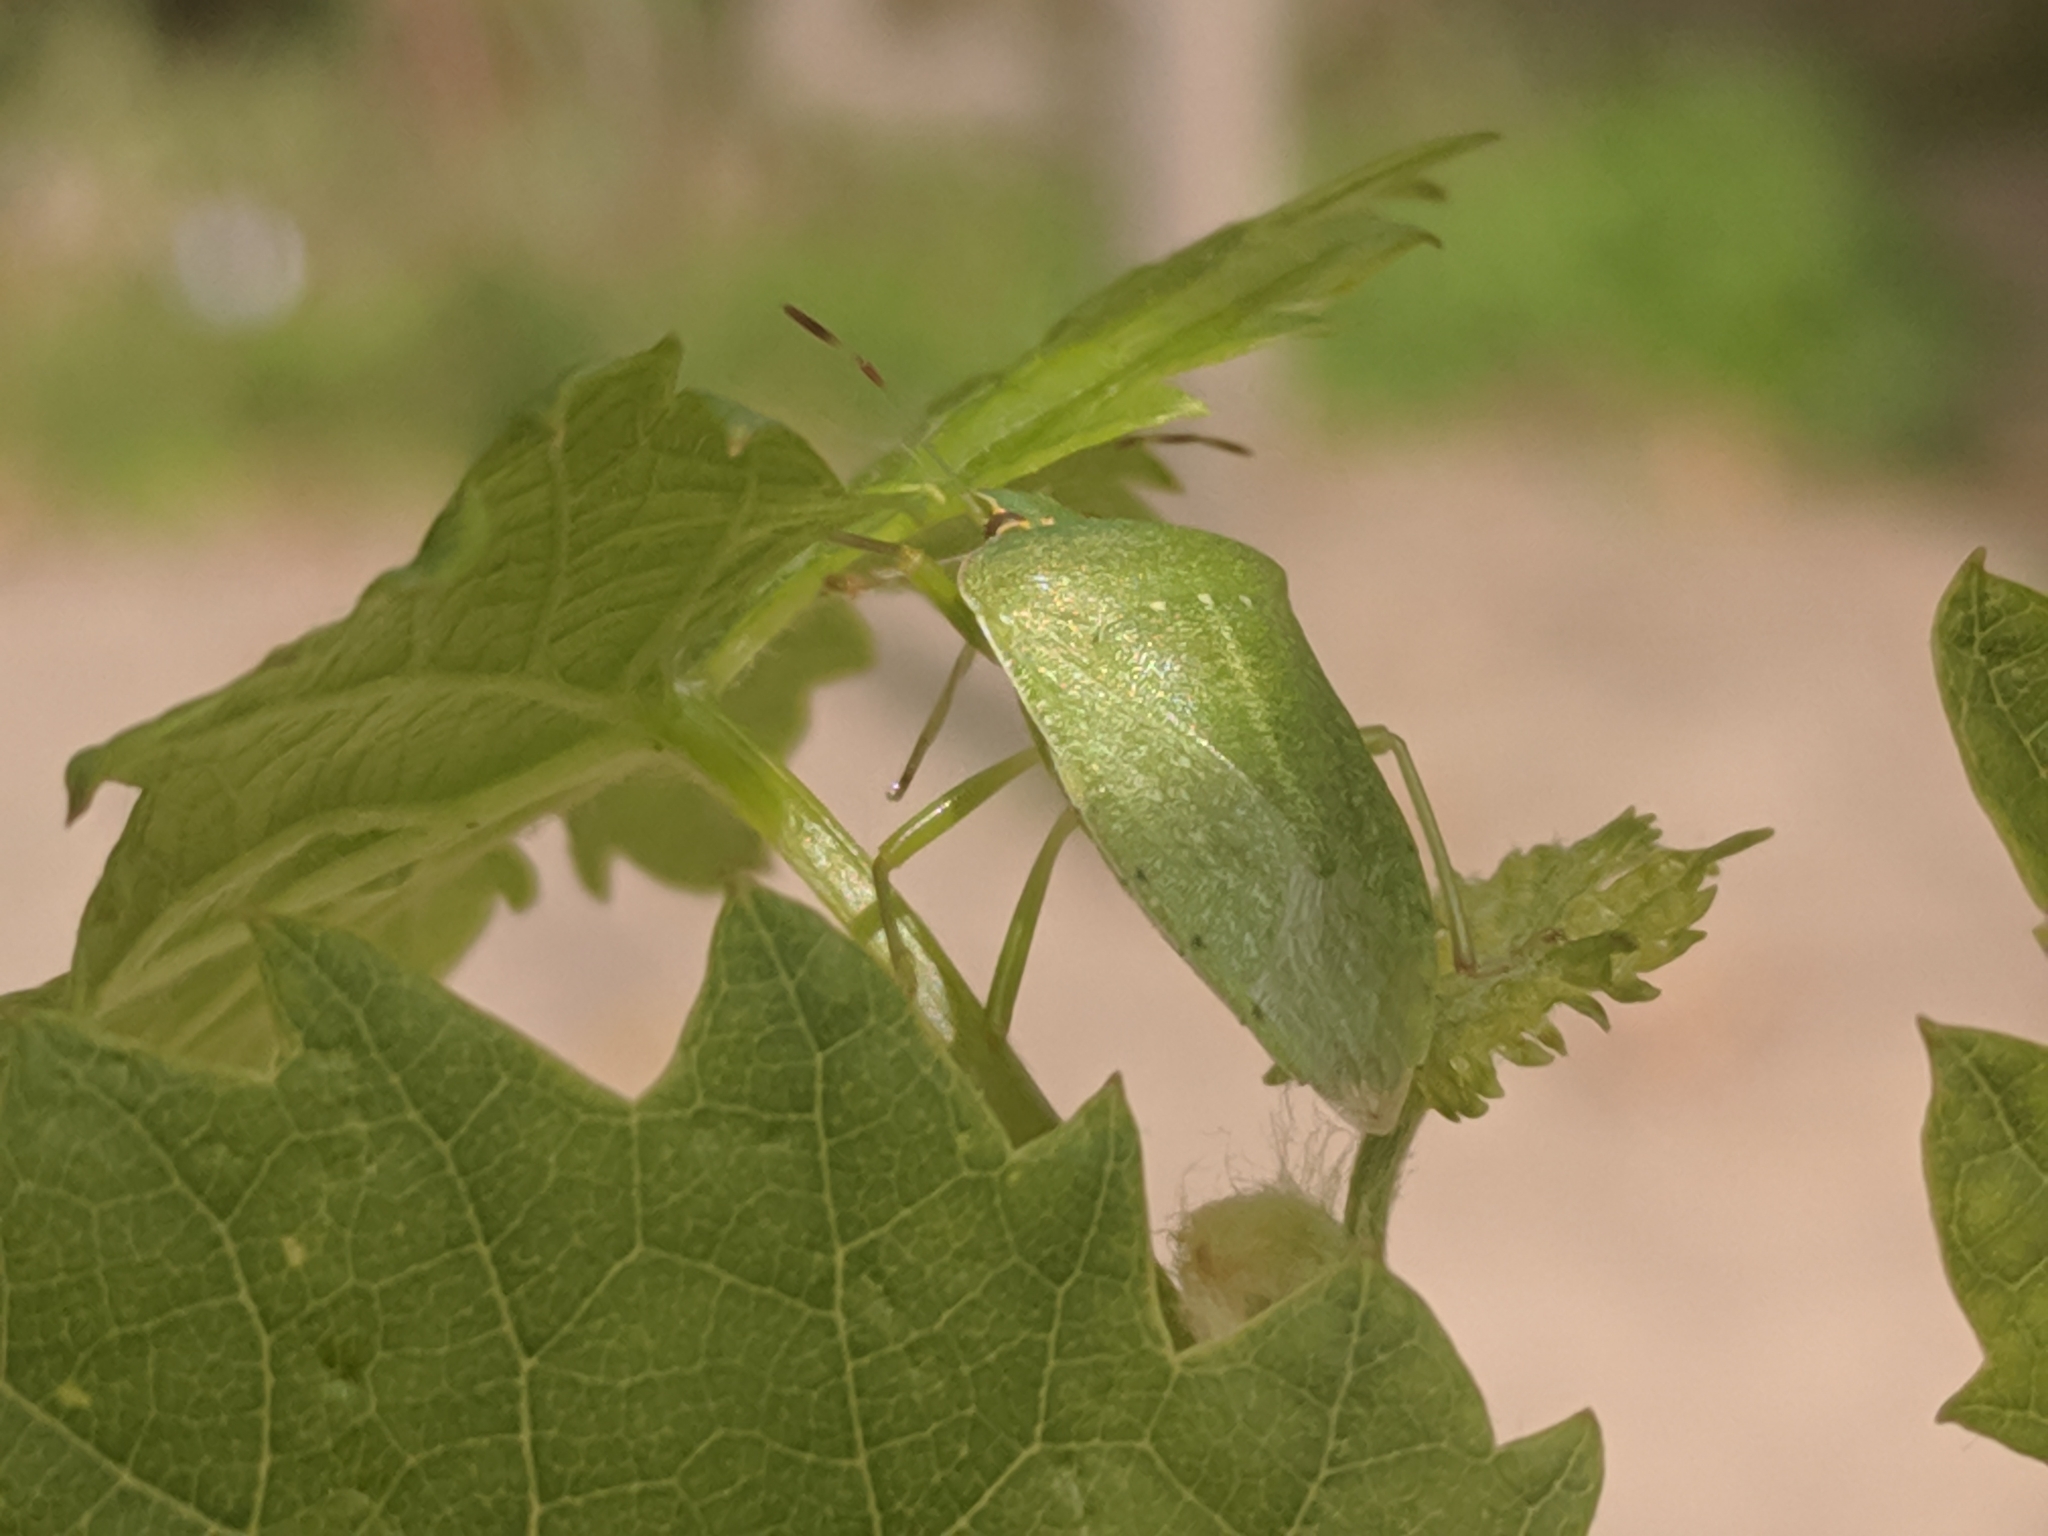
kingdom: Animalia
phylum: Arthropoda
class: Insecta
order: Hemiptera
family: Pentatomidae
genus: Nezara
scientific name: Nezara viridula
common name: Southern green stink bug
